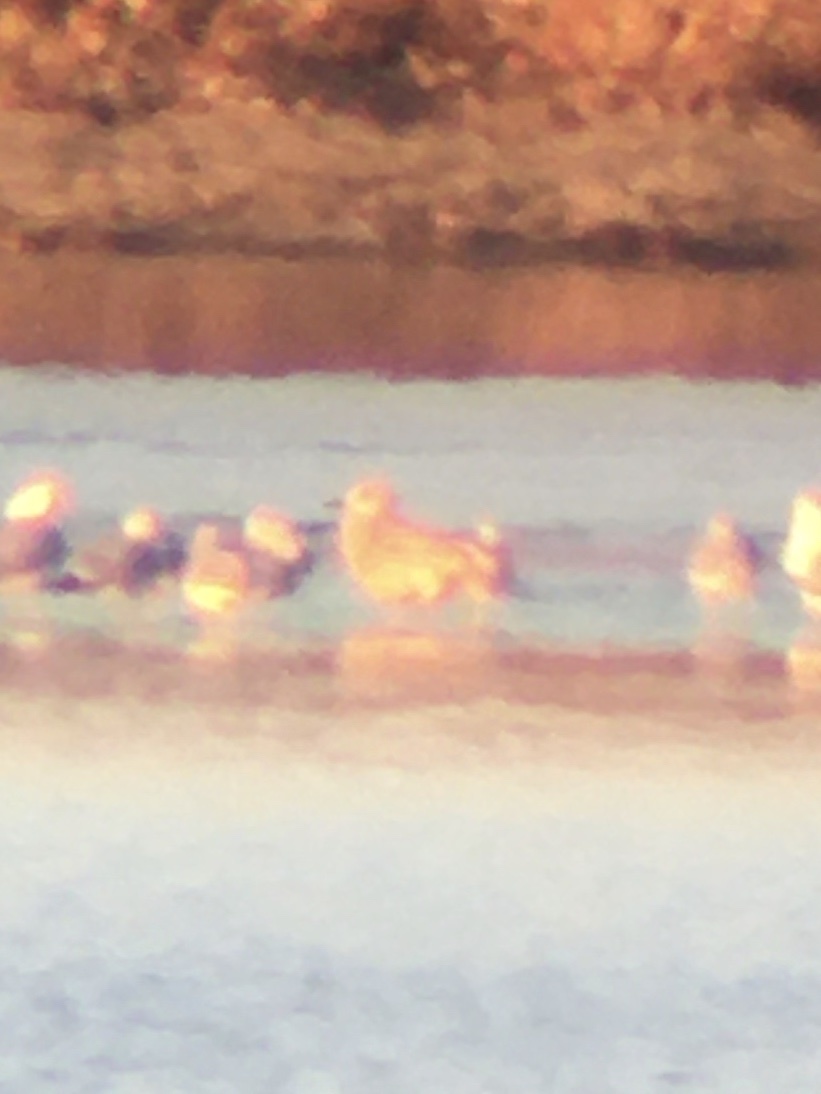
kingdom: Animalia
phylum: Chordata
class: Aves
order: Charadriiformes
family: Laridae
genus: Larus
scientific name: Larus glaucoides
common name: Iceland gull
